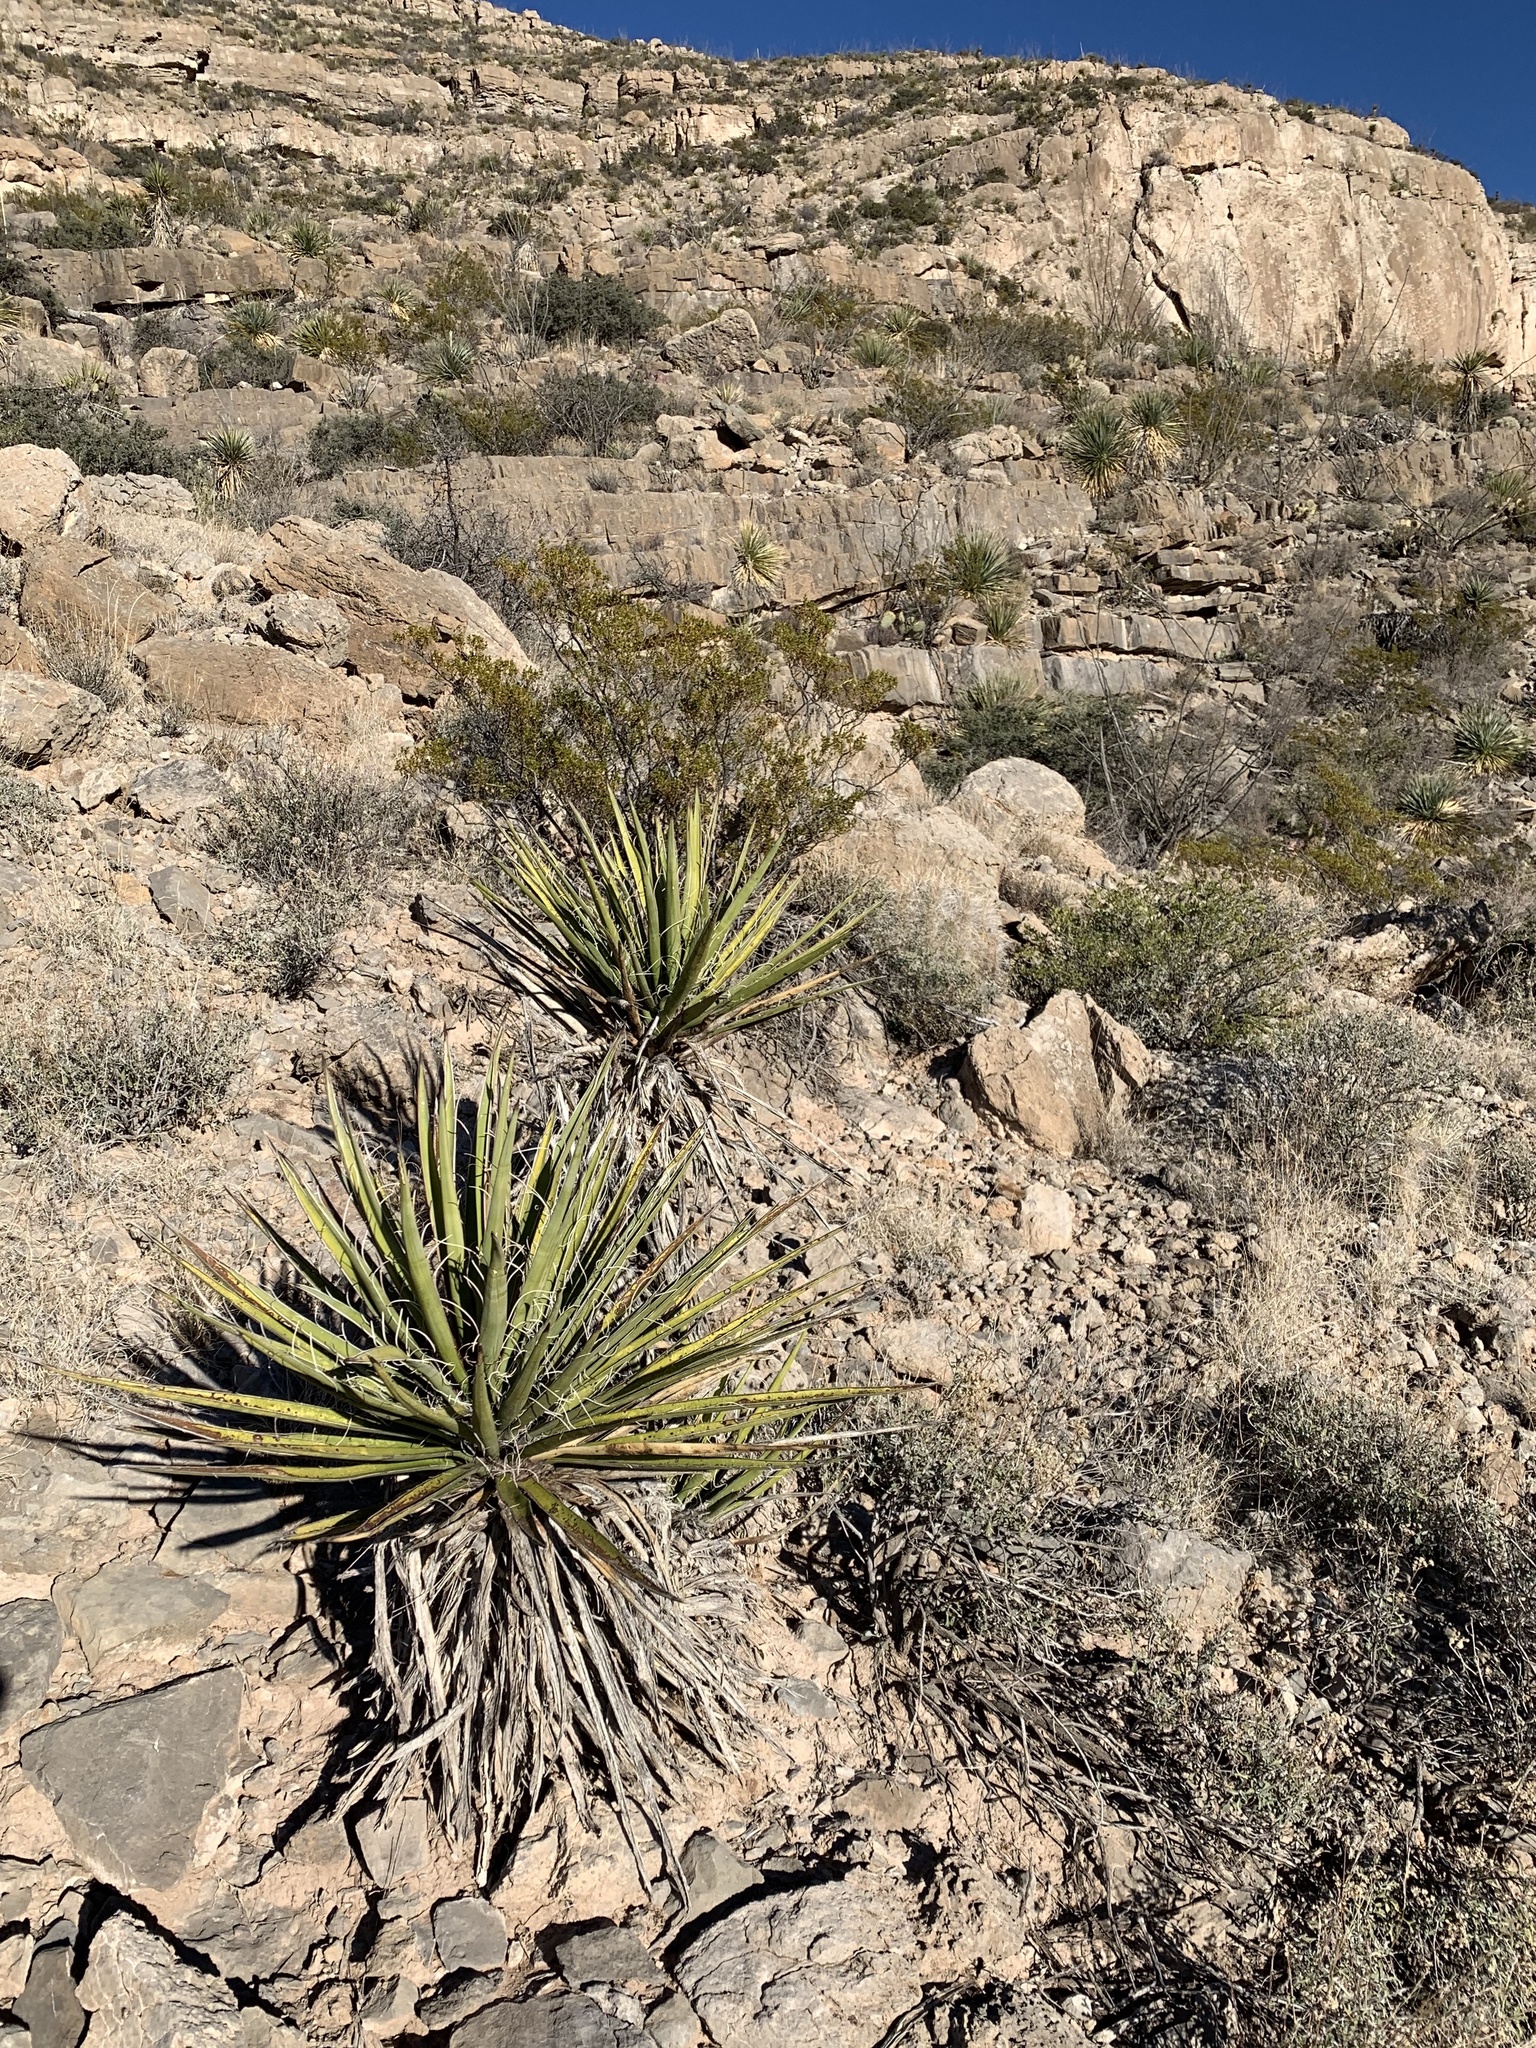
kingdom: Plantae
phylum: Tracheophyta
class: Liliopsida
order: Asparagales
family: Asparagaceae
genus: Yucca
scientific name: Yucca treculiana
